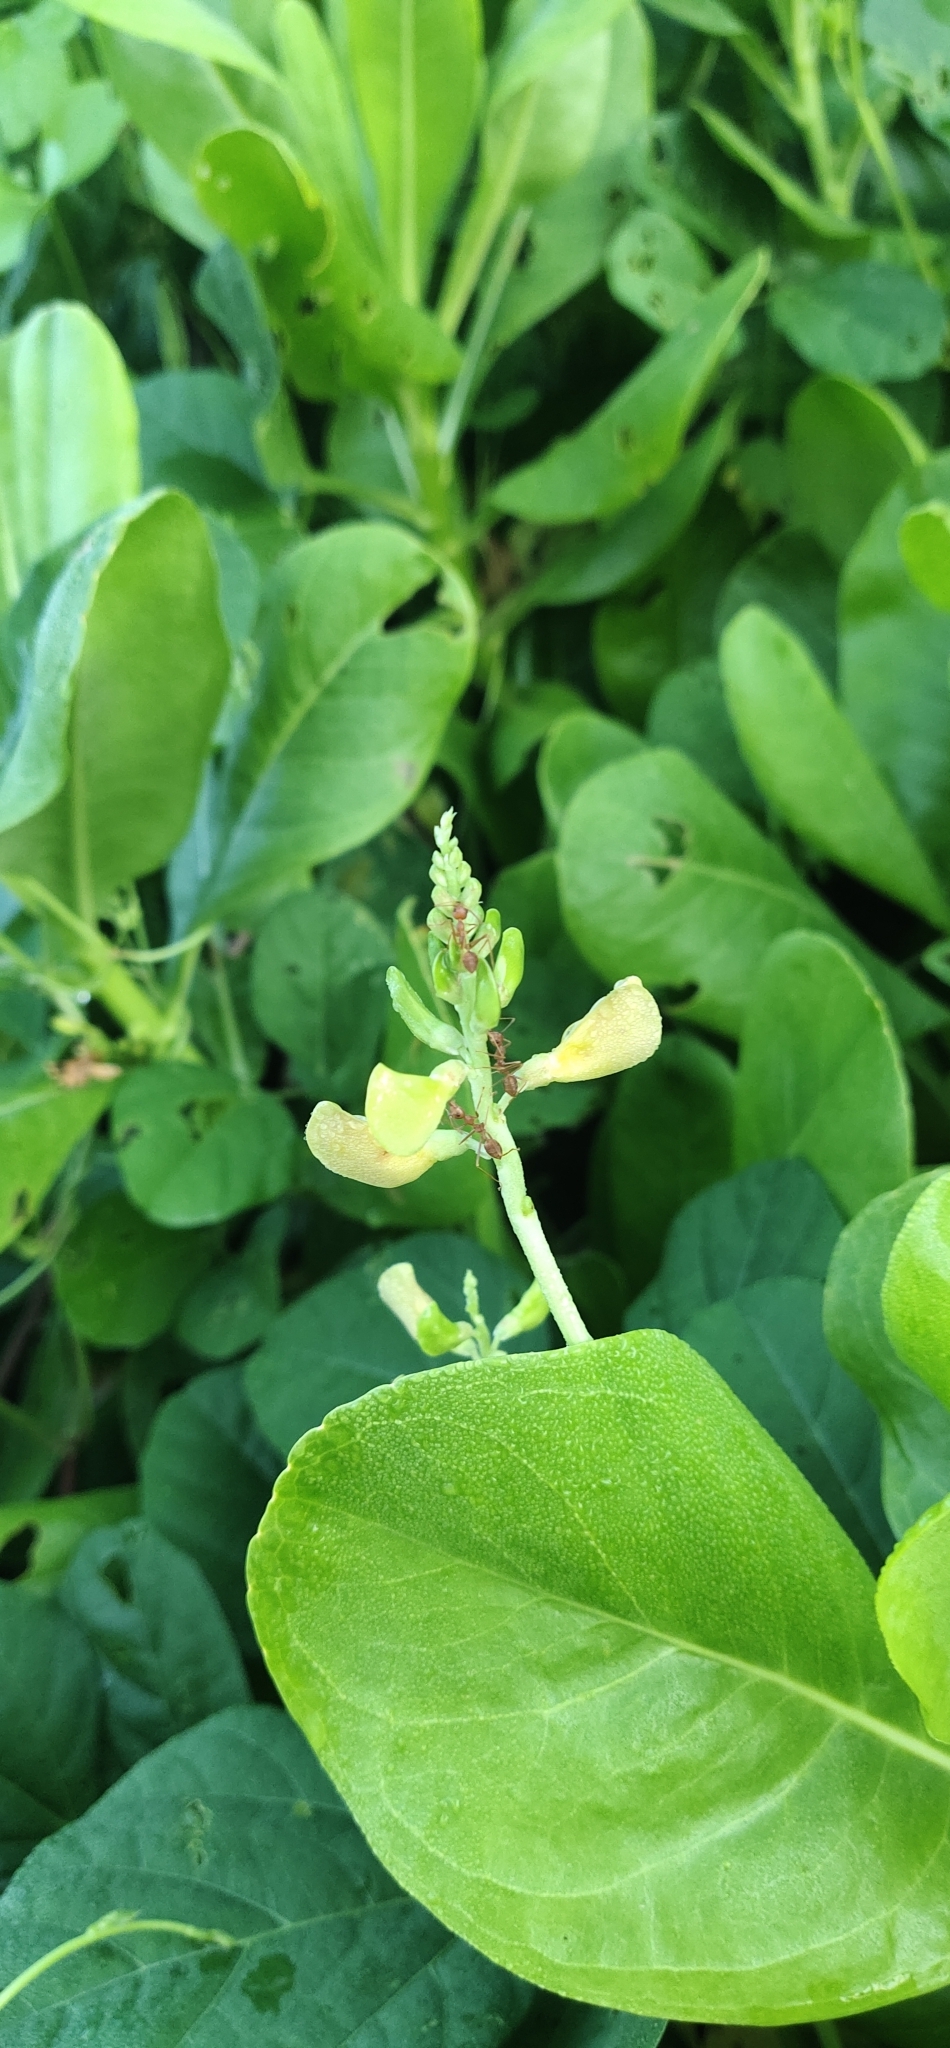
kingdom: Animalia
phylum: Arthropoda
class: Insecta
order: Hymenoptera
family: Formicidae
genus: Oecophylla
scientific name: Oecophylla smaragdina
